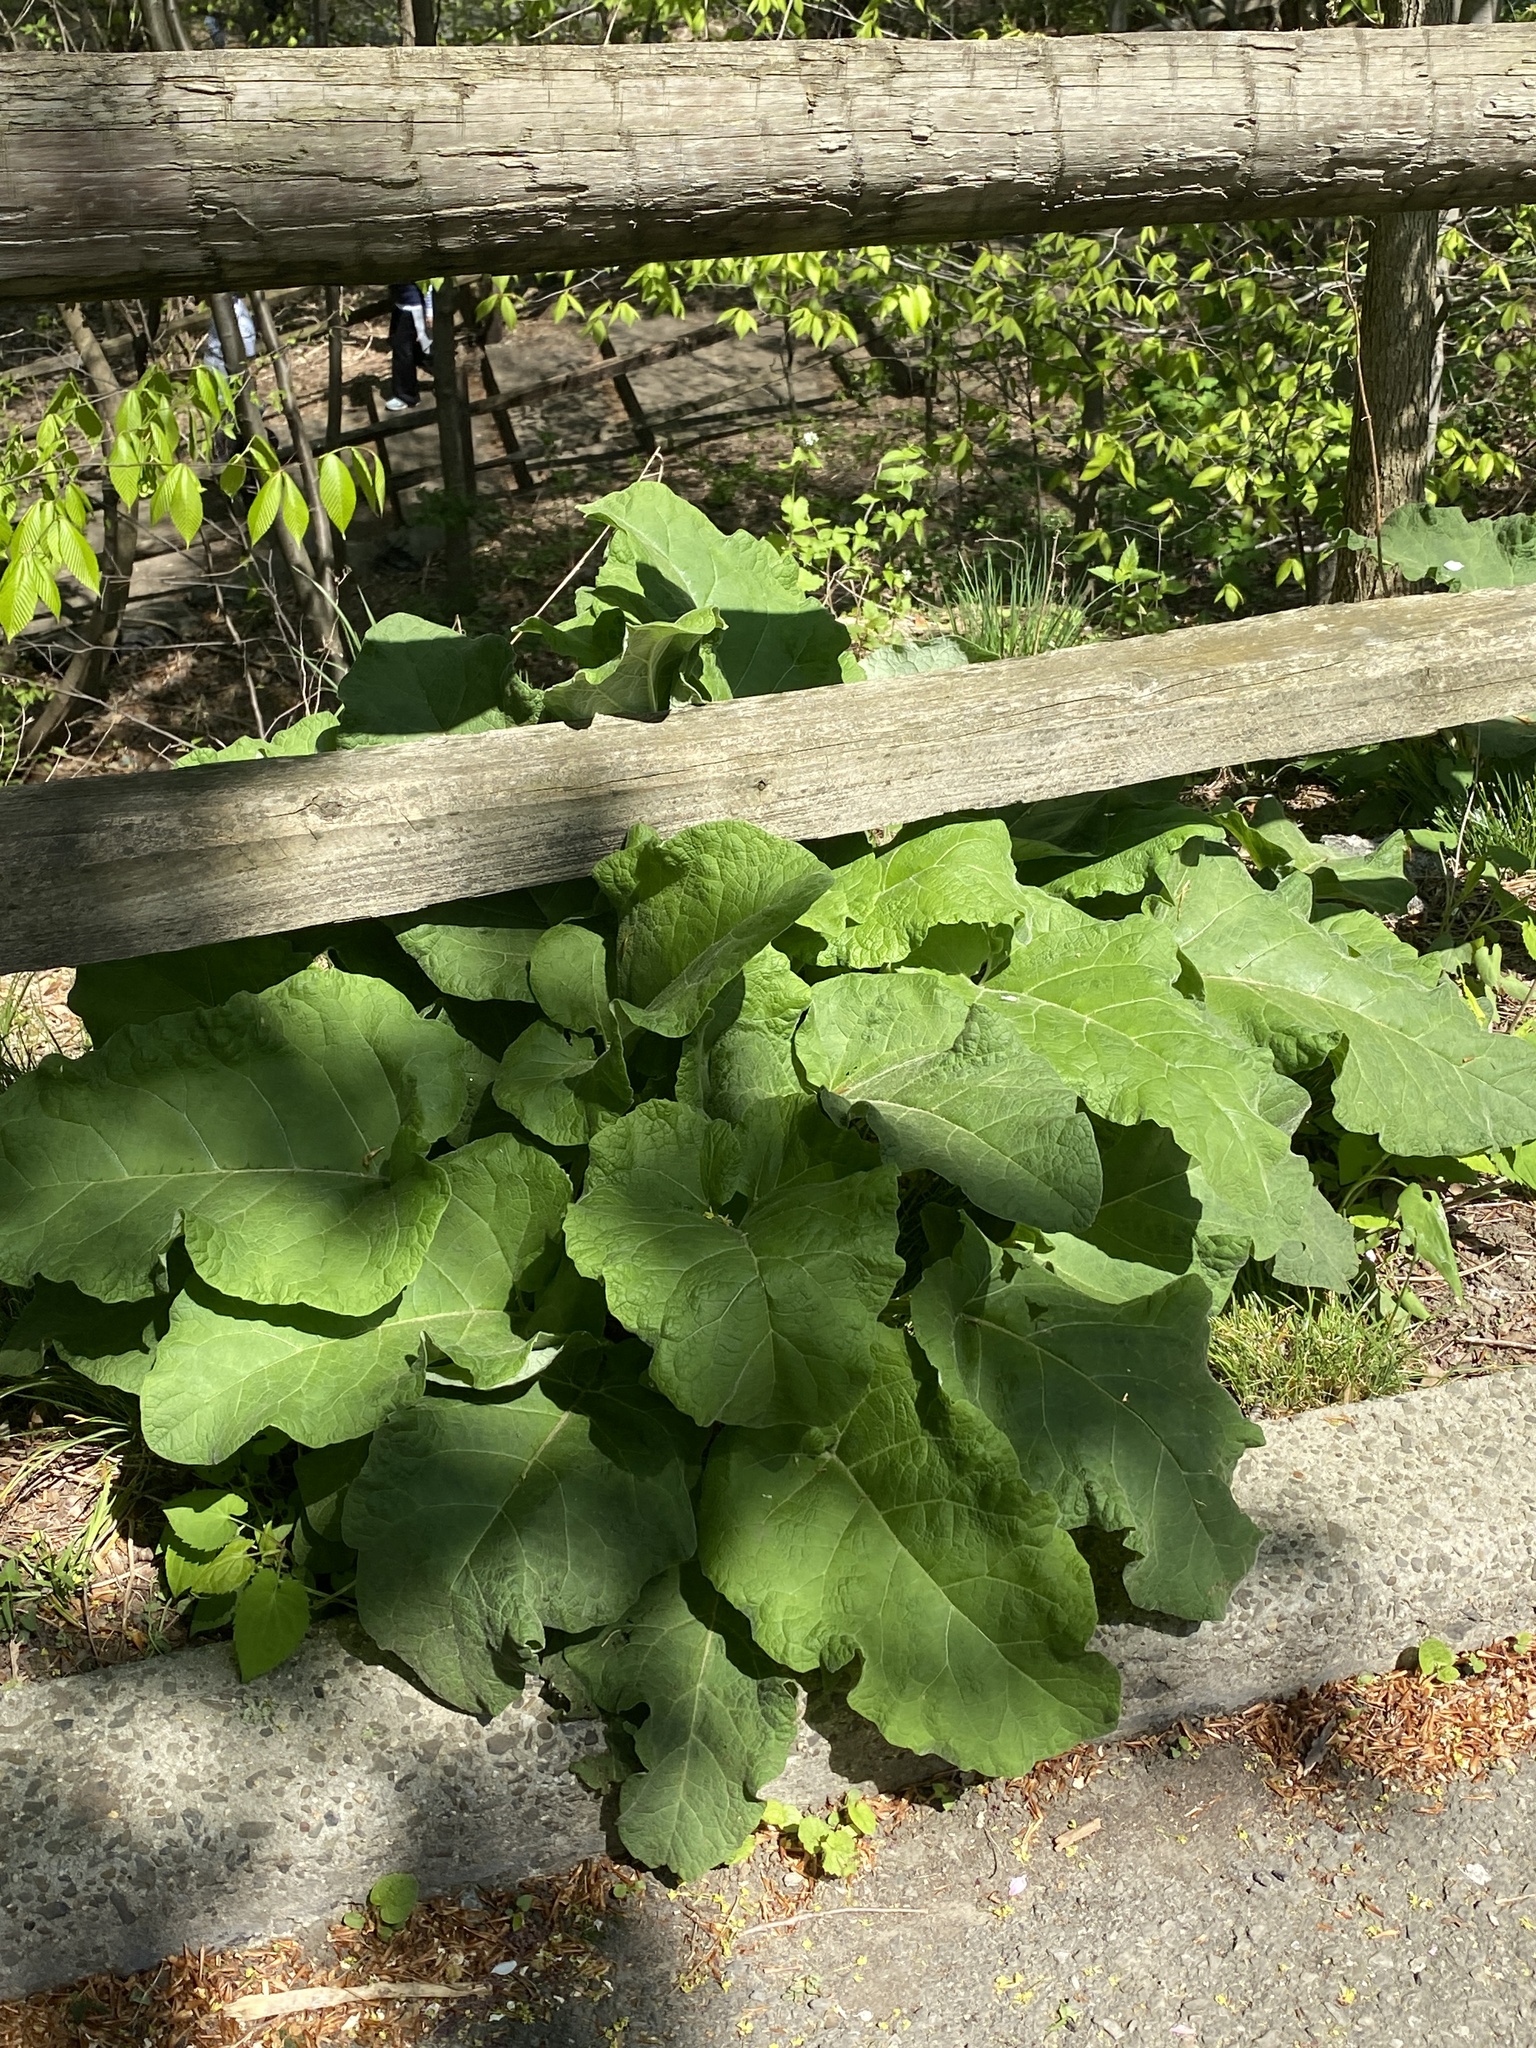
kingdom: Plantae
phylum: Tracheophyta
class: Magnoliopsida
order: Asterales
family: Asteraceae
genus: Arctium
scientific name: Arctium minus
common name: Lesser burdock
